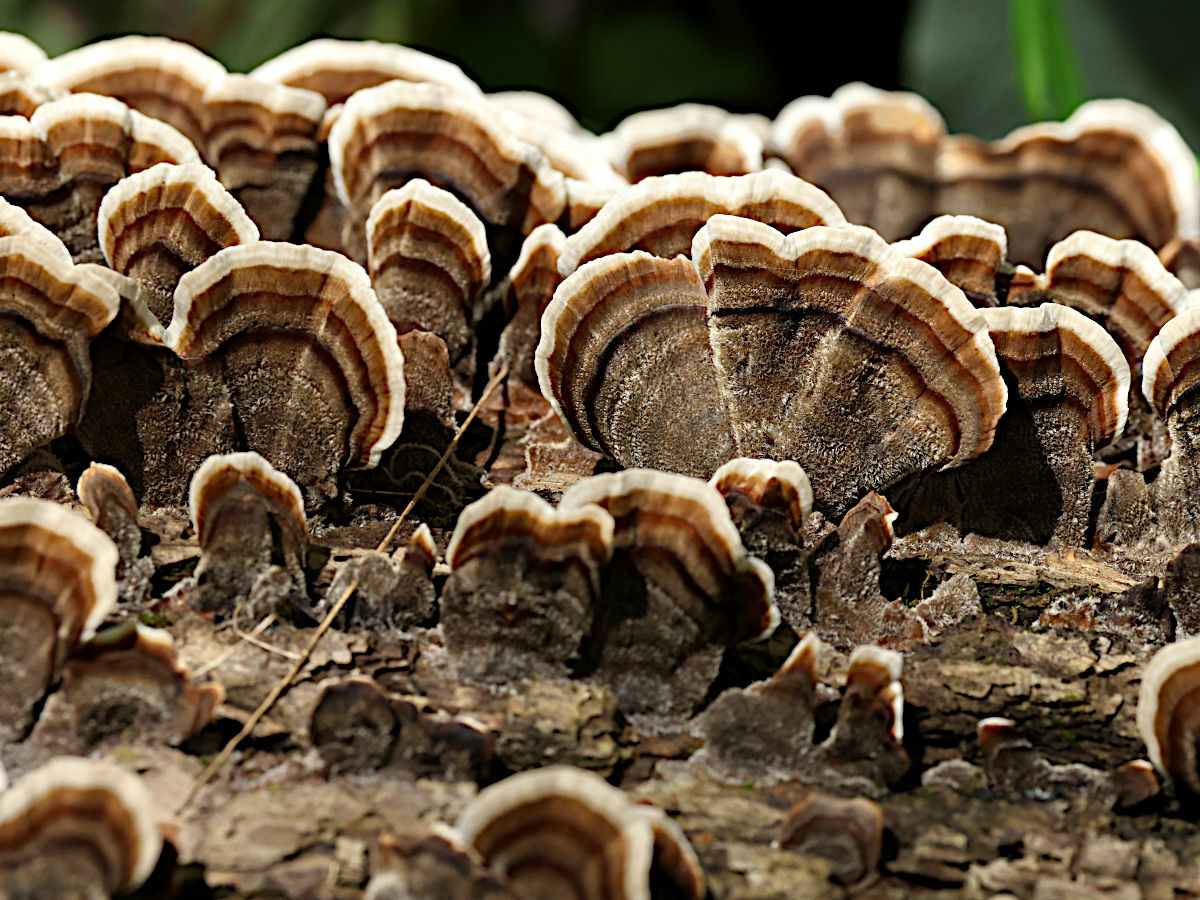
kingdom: Fungi
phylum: Basidiomycota
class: Agaricomycetes
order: Polyporales
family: Polyporaceae
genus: Trametes
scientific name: Trametes versicolor
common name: Turkeytail
